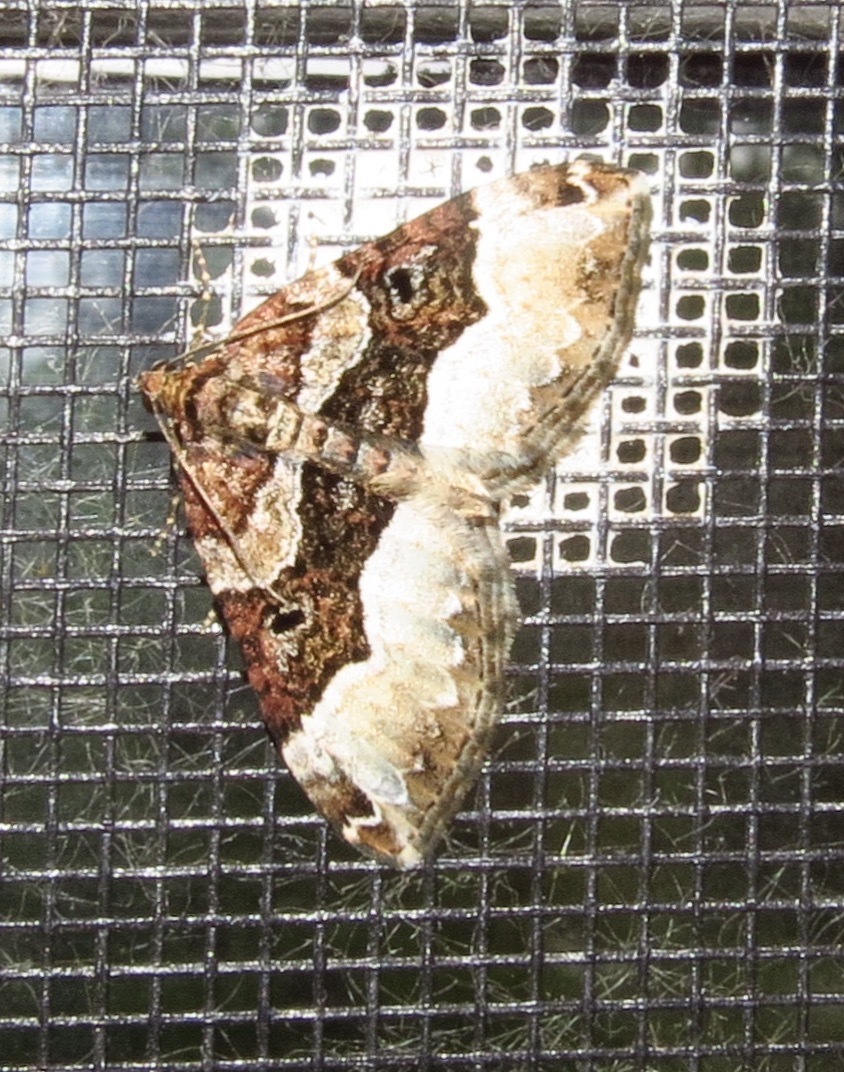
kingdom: Animalia
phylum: Arthropoda
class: Insecta
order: Lepidoptera
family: Geometridae
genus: Euphyia
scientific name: Euphyia intermediata
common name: Sharp-angled carpet
